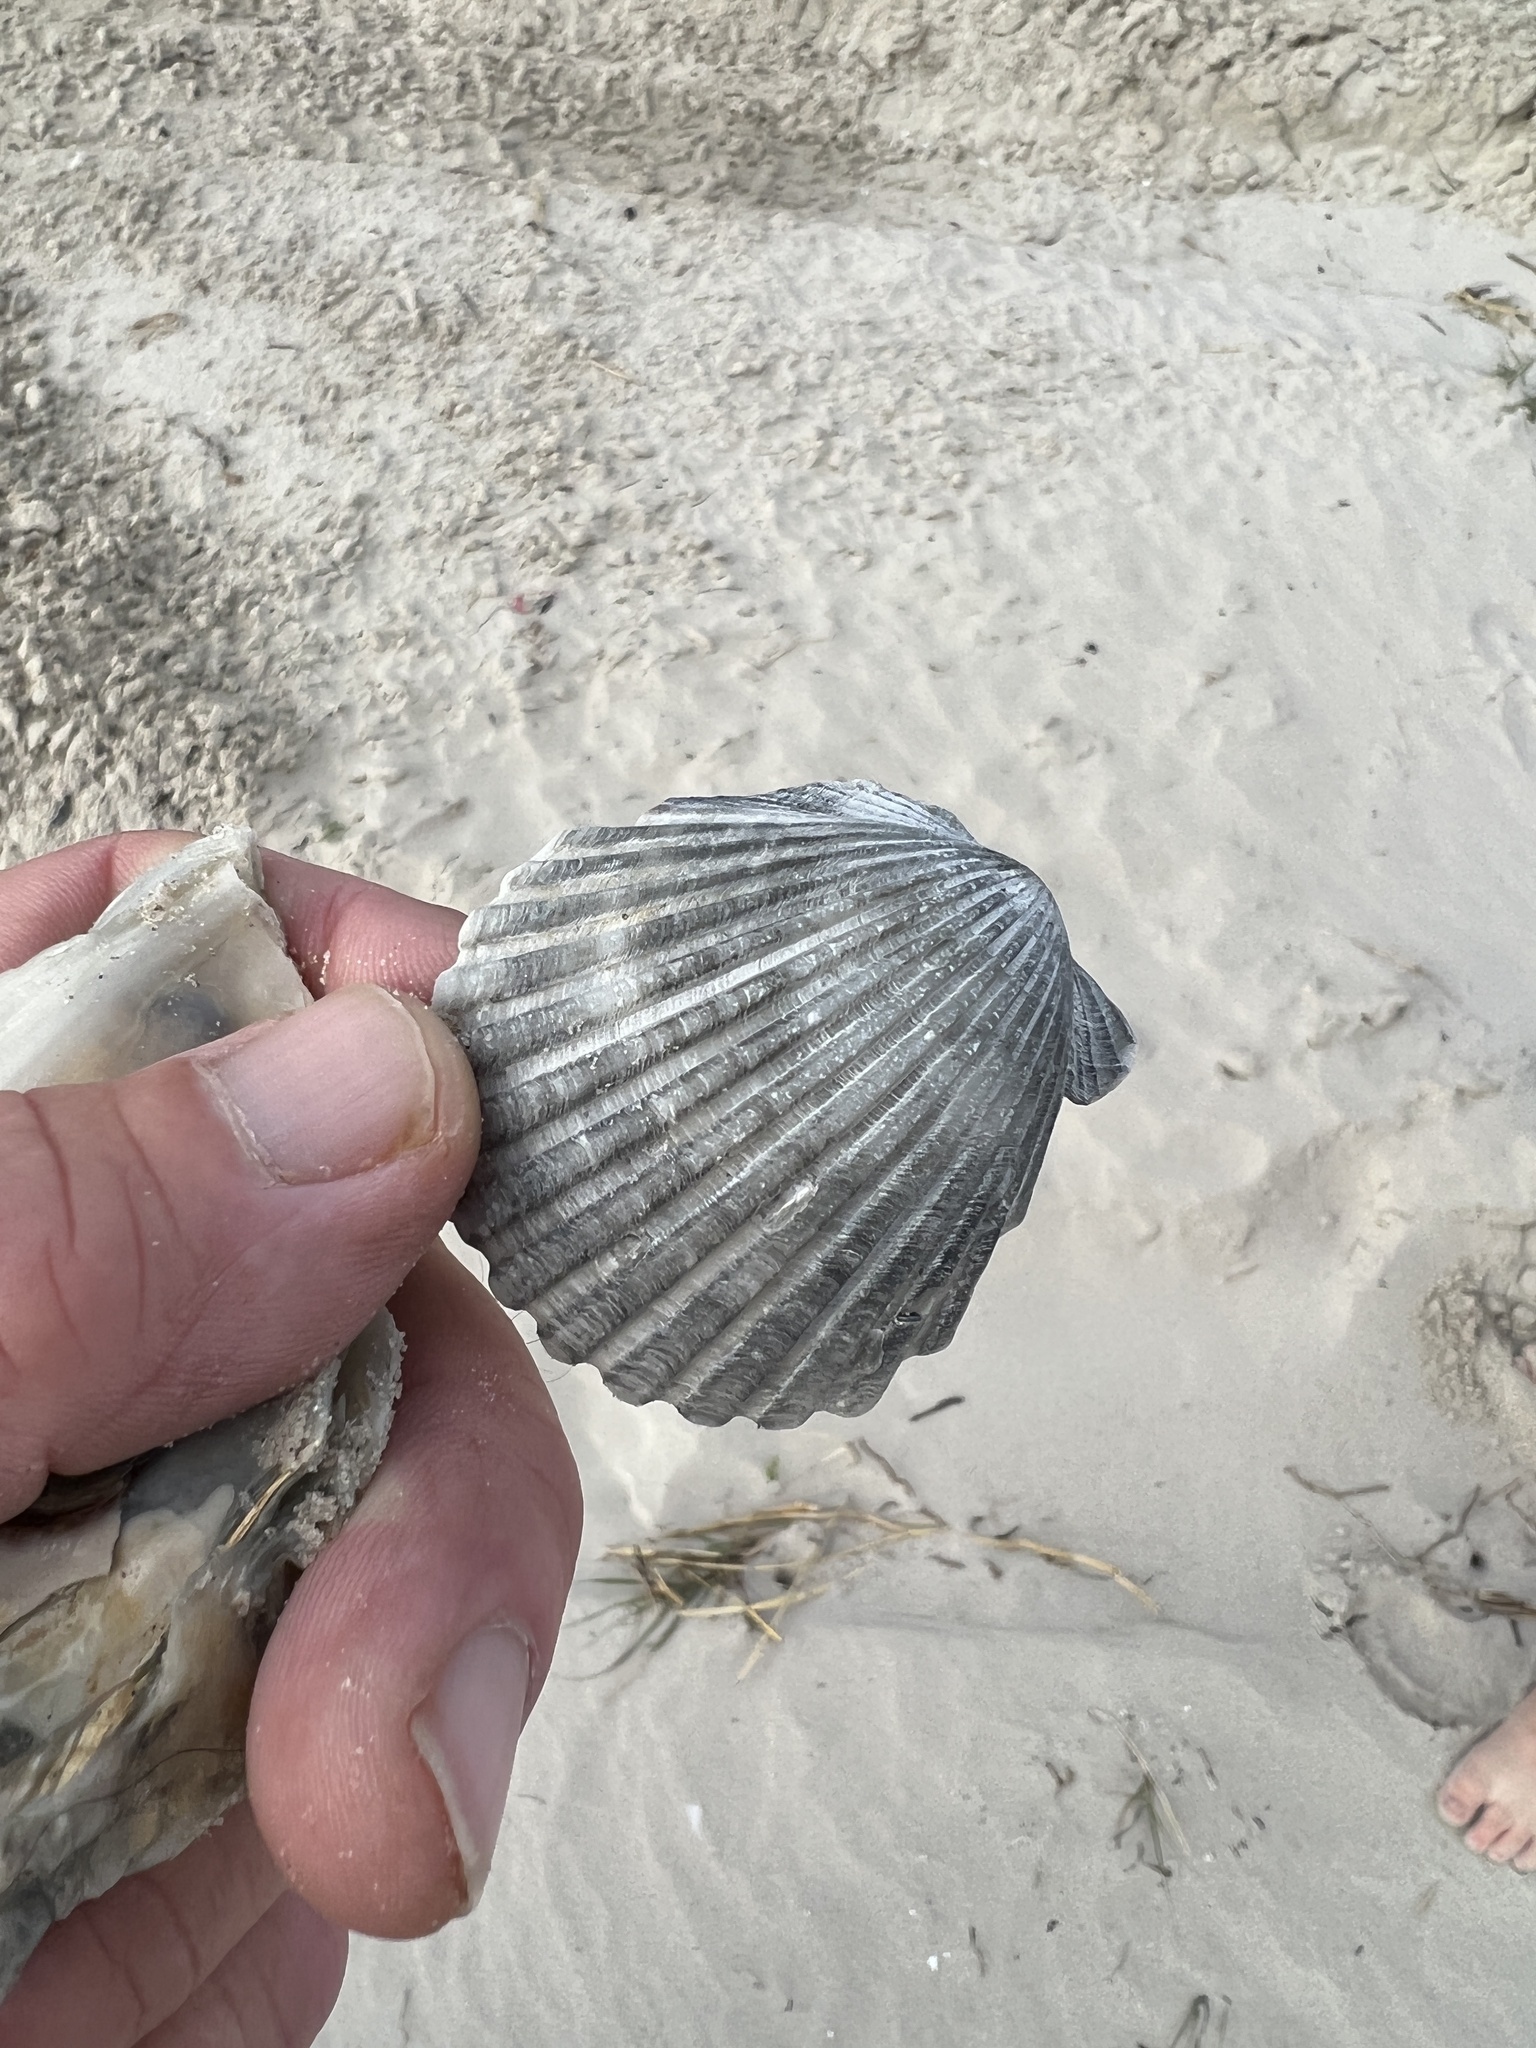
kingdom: Animalia
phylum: Mollusca
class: Bivalvia
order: Pectinida
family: Pectinidae
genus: Argopecten
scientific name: Argopecten irradians
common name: Atlantic bay scallop
